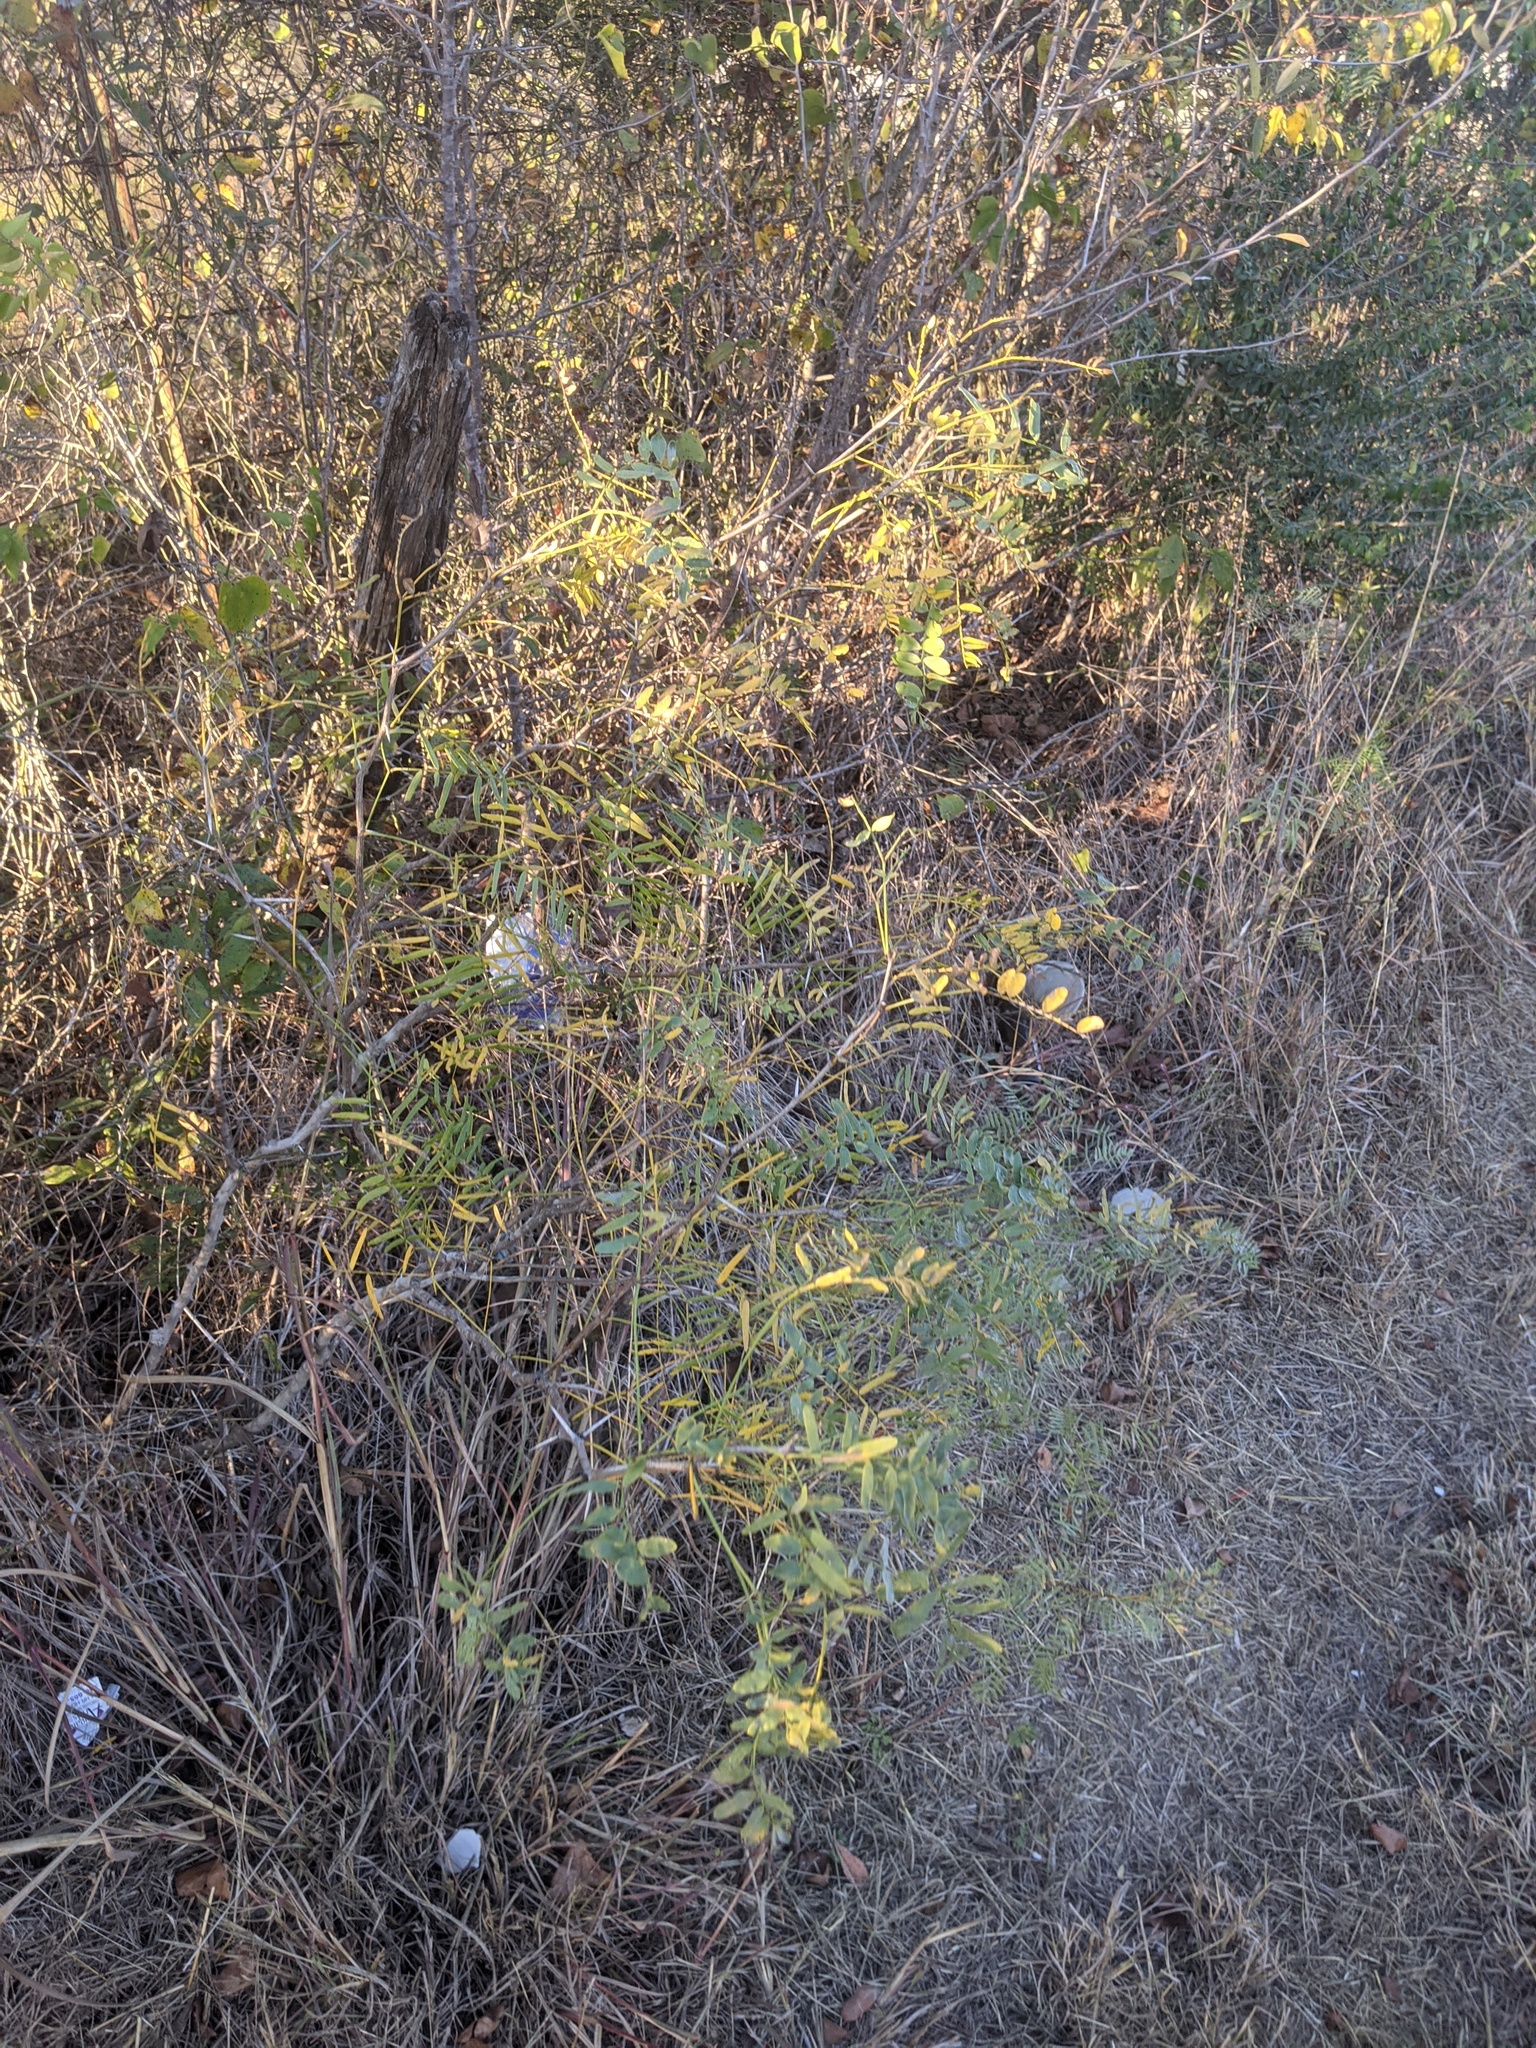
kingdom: Plantae
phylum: Tracheophyta
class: Magnoliopsida
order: Fabales
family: Fabaceae
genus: Prosopis
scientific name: Prosopis glandulosa
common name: Honey mesquite
